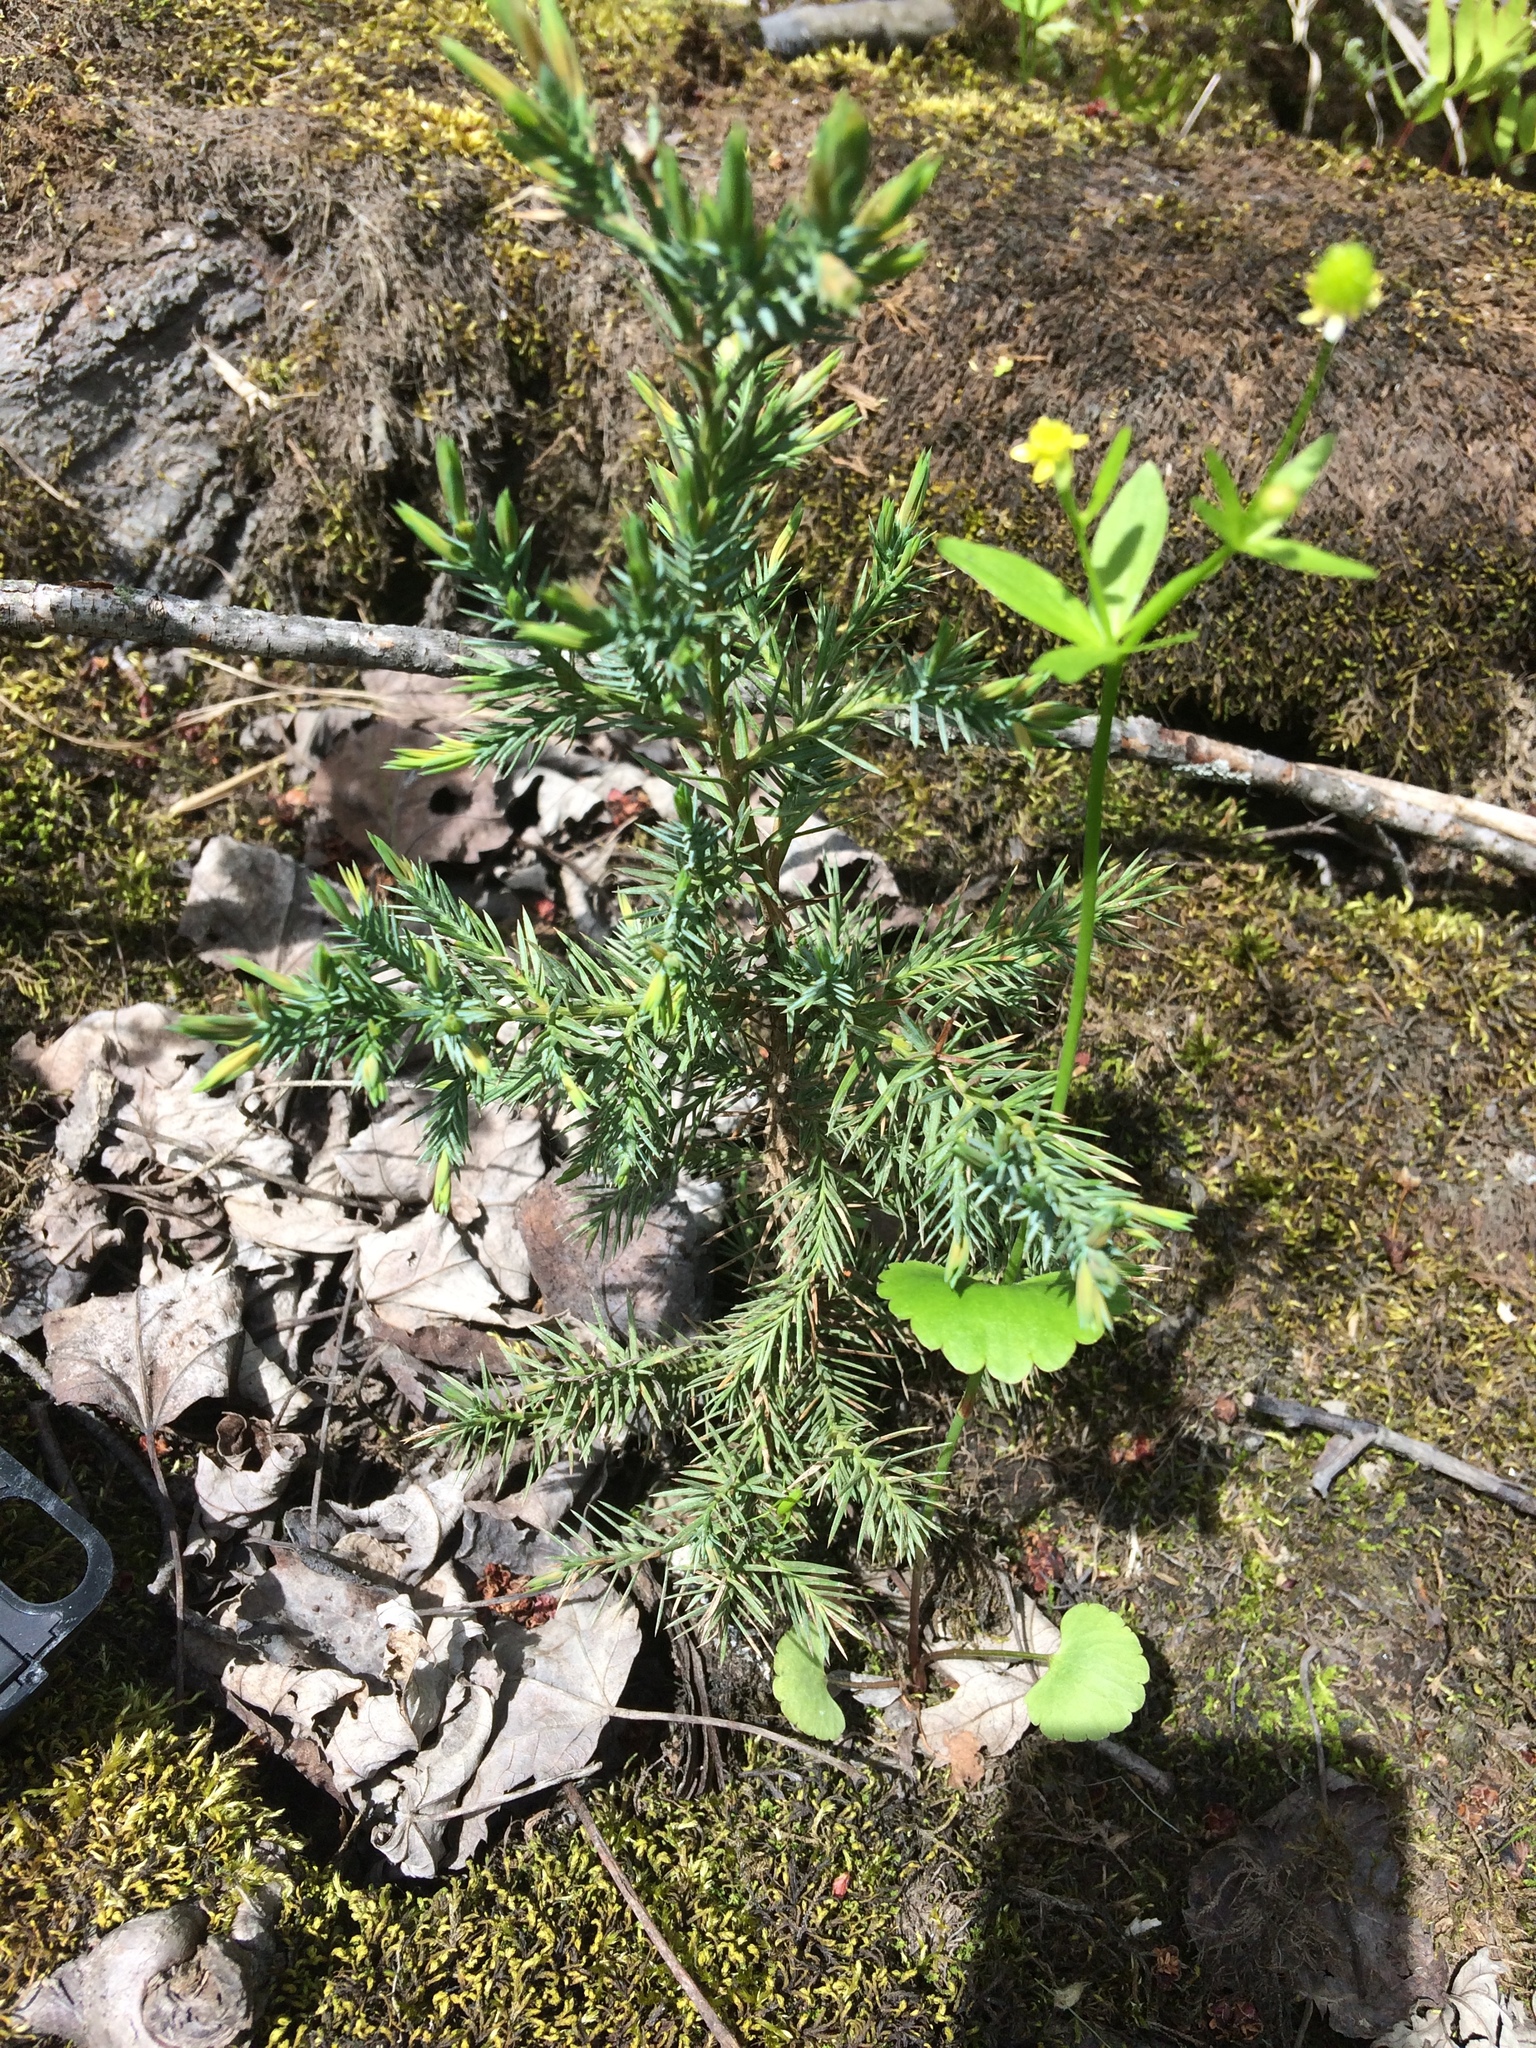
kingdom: Plantae
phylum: Tracheophyta
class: Pinopsida
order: Pinales
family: Cupressaceae
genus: Juniperus
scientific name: Juniperus virginiana
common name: Red juniper
